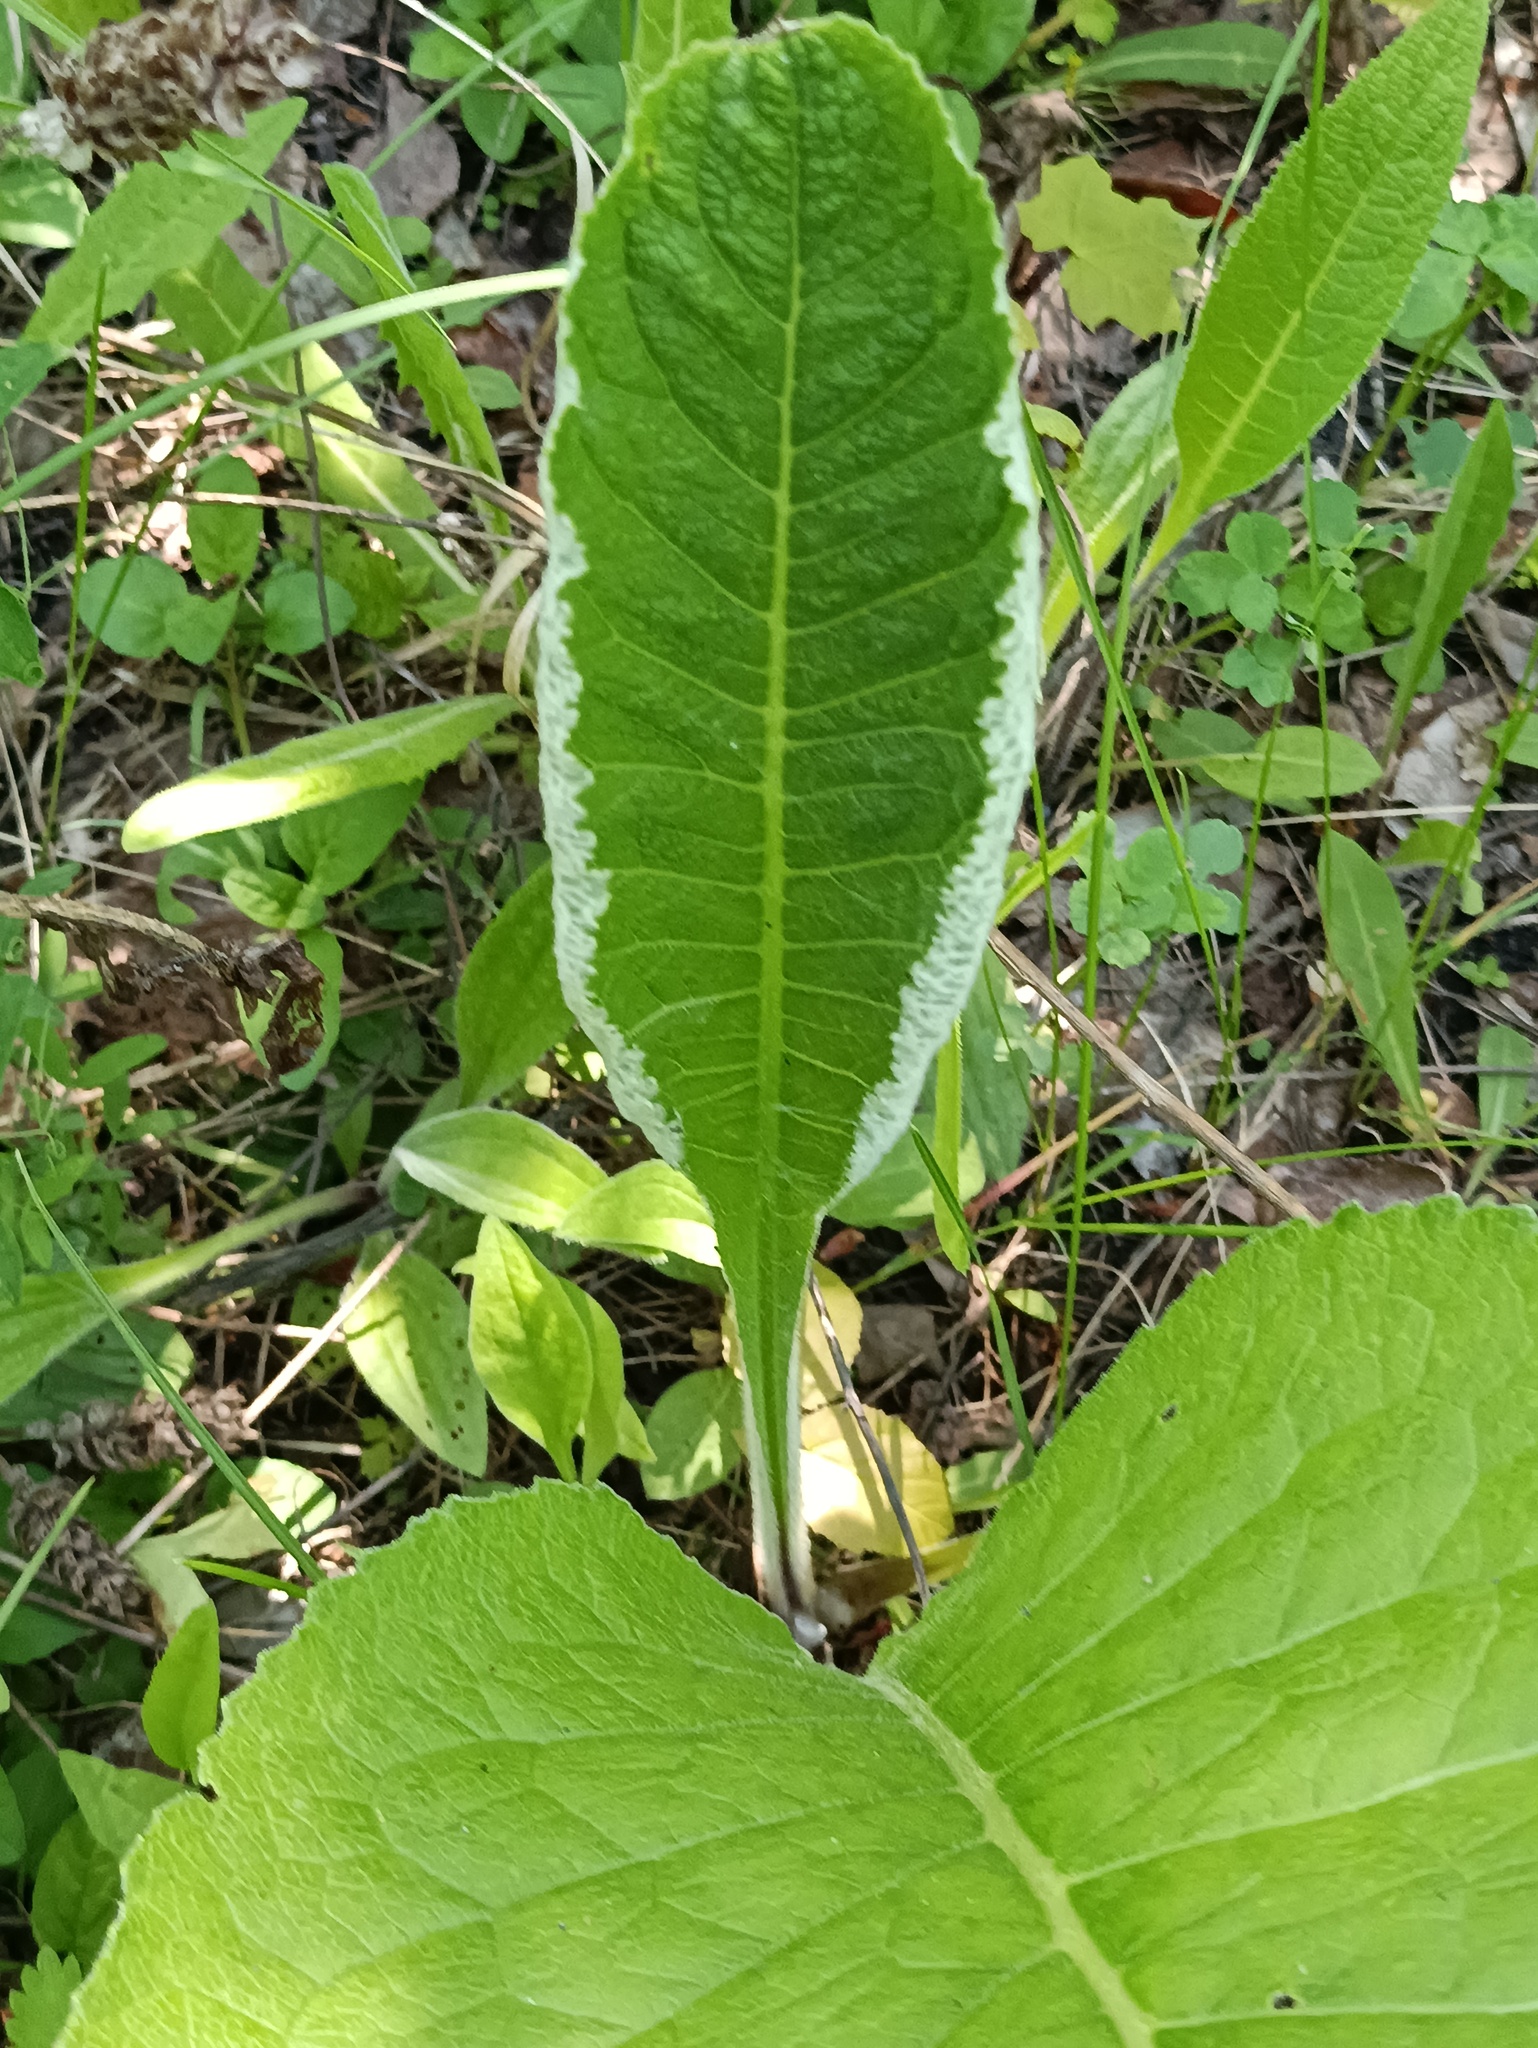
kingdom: Plantae
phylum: Tracheophyta
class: Magnoliopsida
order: Asterales
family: Asteraceae
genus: Inula
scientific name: Inula helenium
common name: Elecampane
